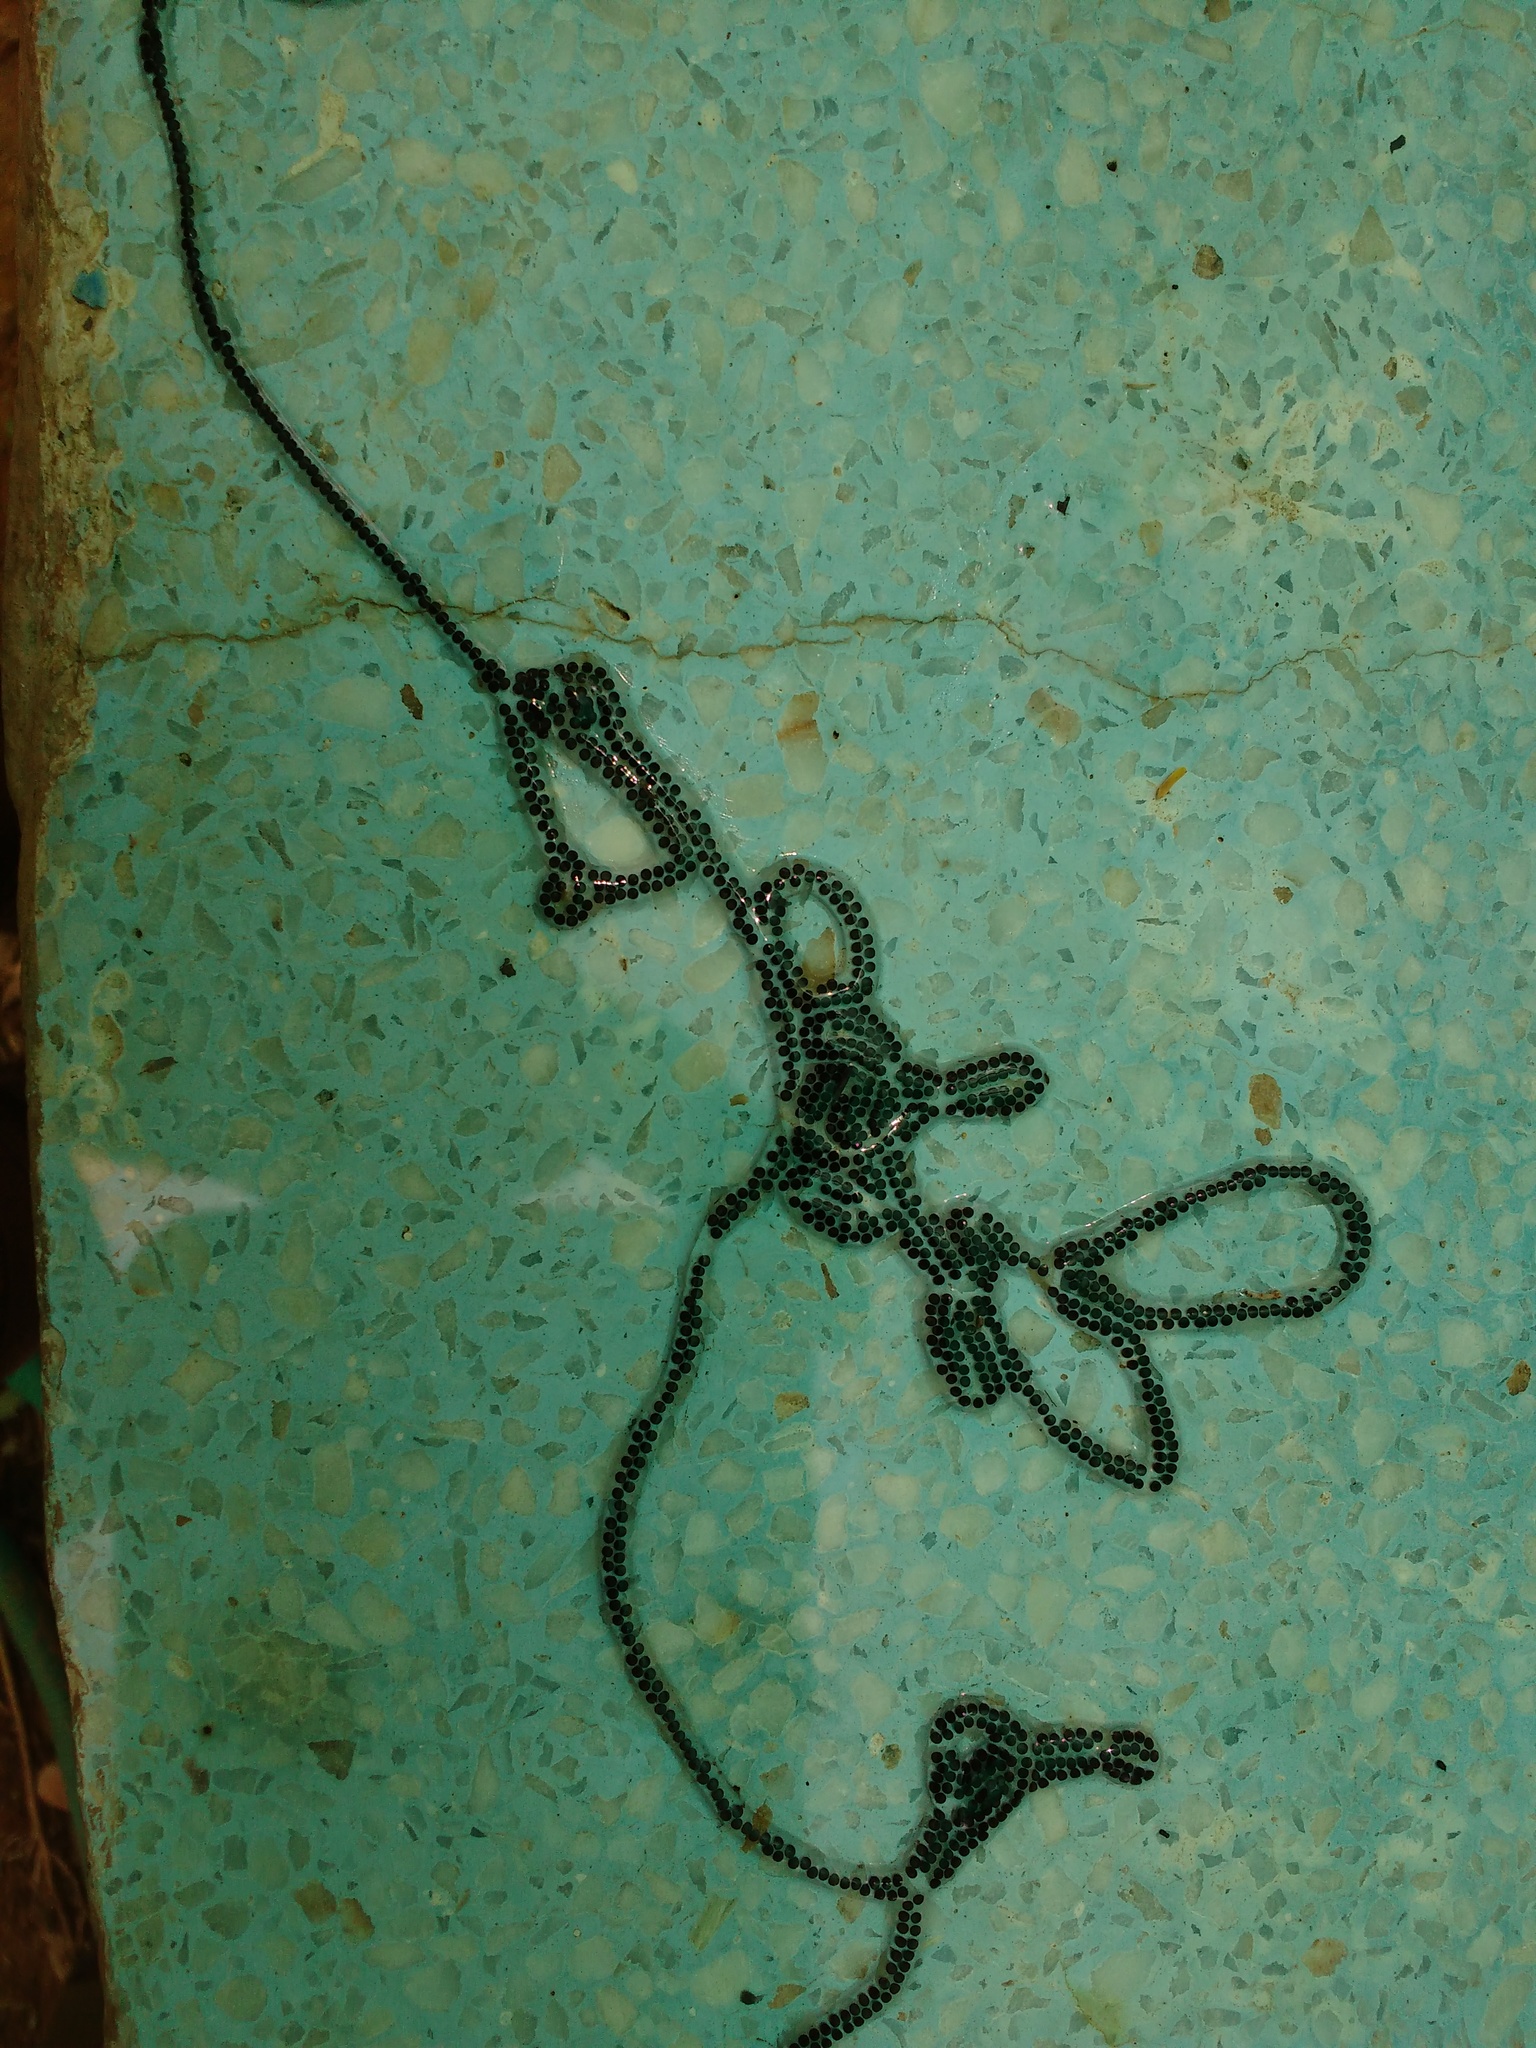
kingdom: Animalia
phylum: Chordata
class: Amphibia
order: Anura
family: Bufonidae
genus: Duttaphrynus
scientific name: Duttaphrynus melanostictus
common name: Common sunda toad
